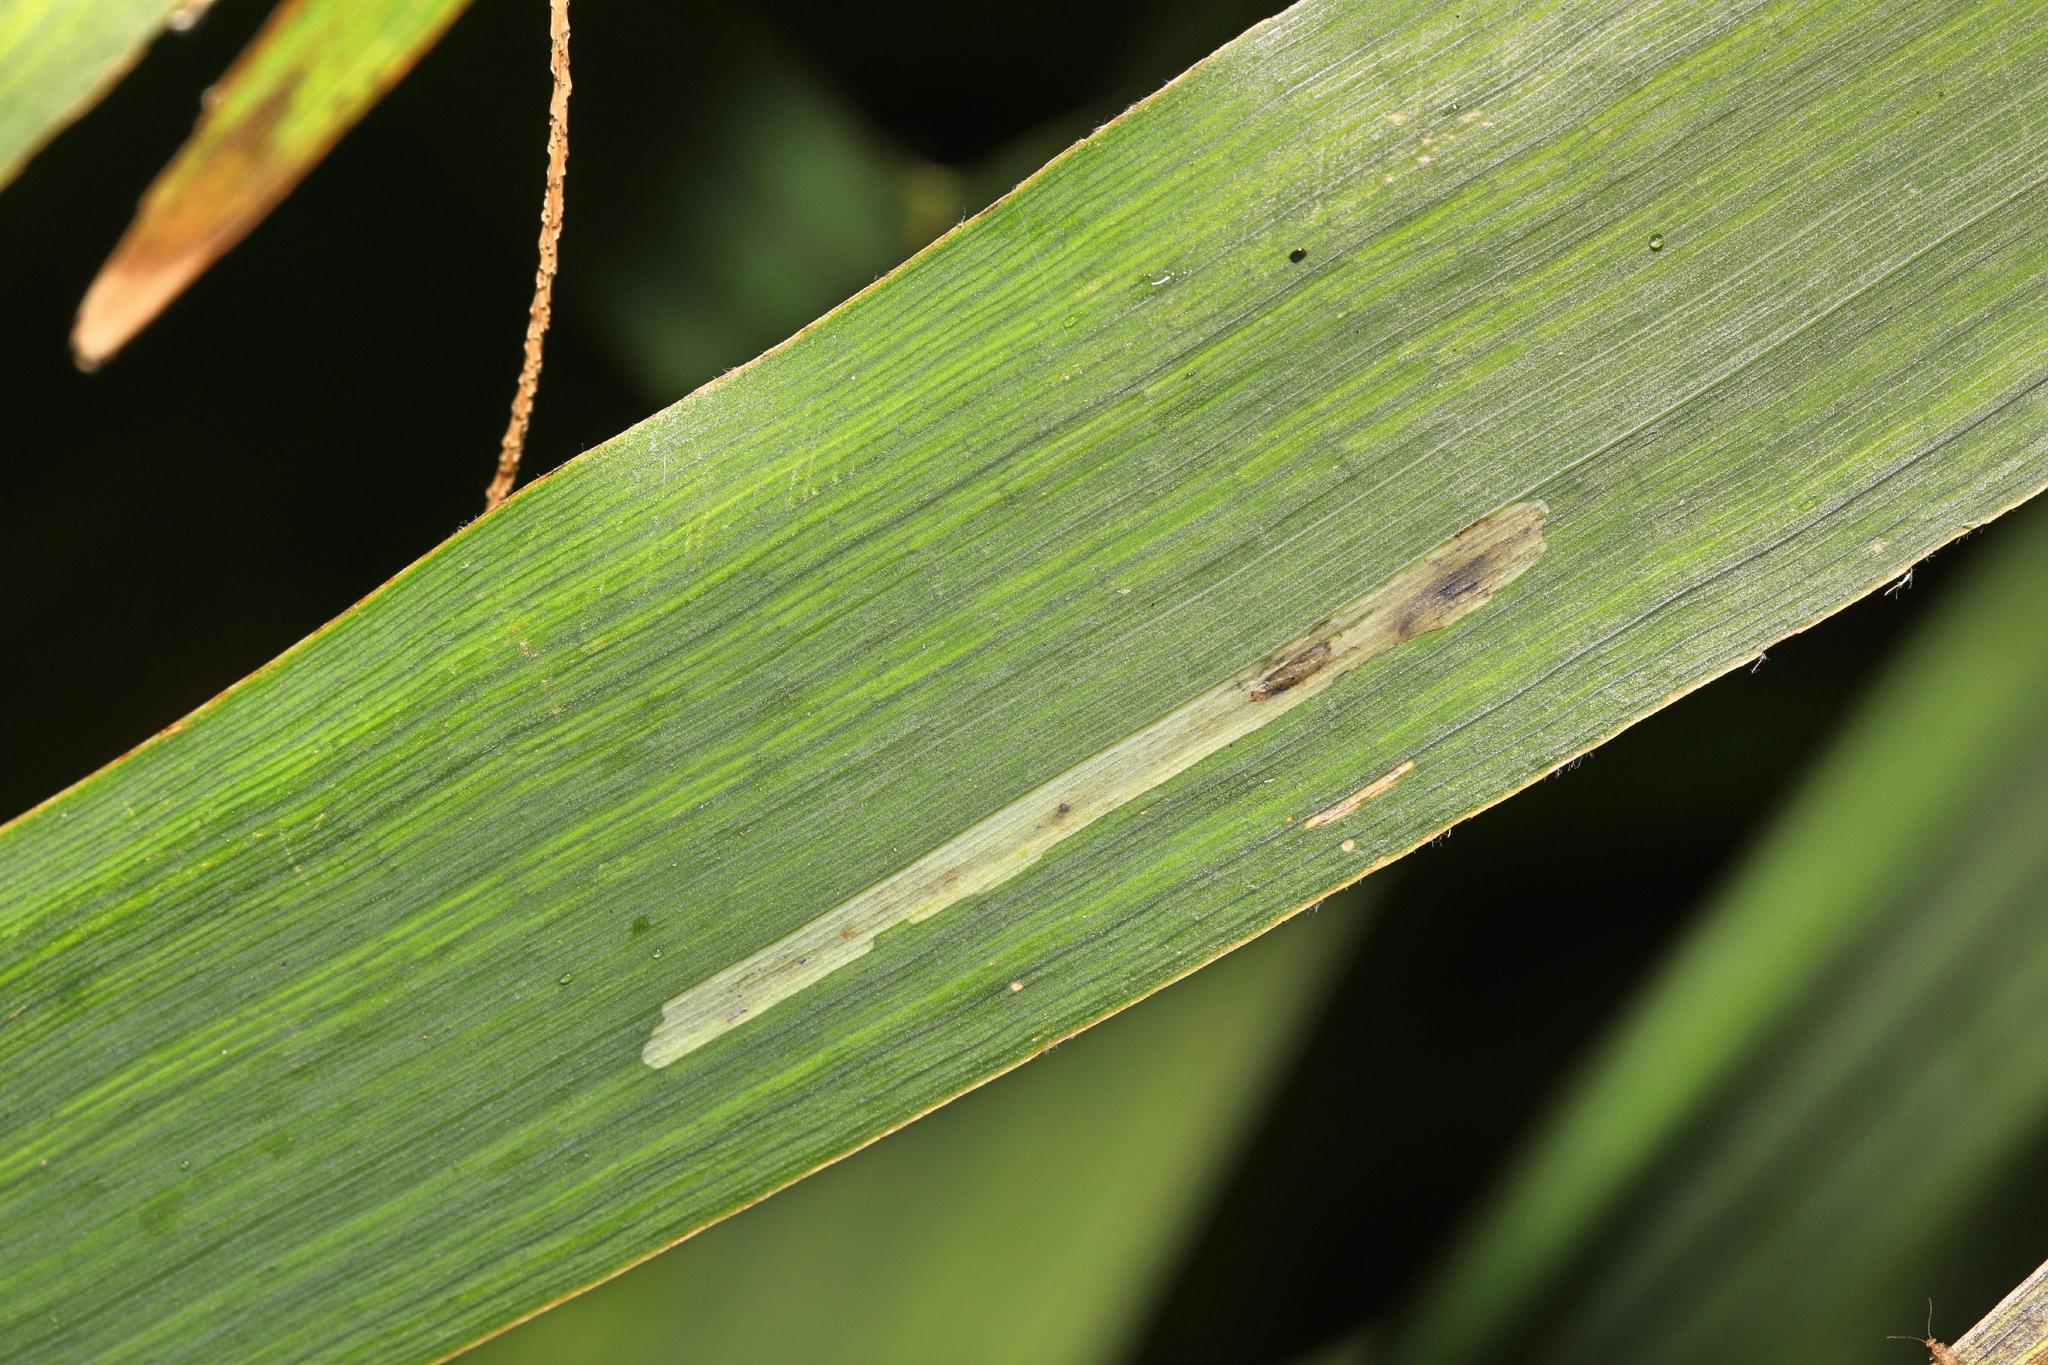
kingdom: Animalia
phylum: Arthropoda
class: Insecta
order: Diptera
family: Agromyzidae
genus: Cerodontha
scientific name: Cerodontha ircos
